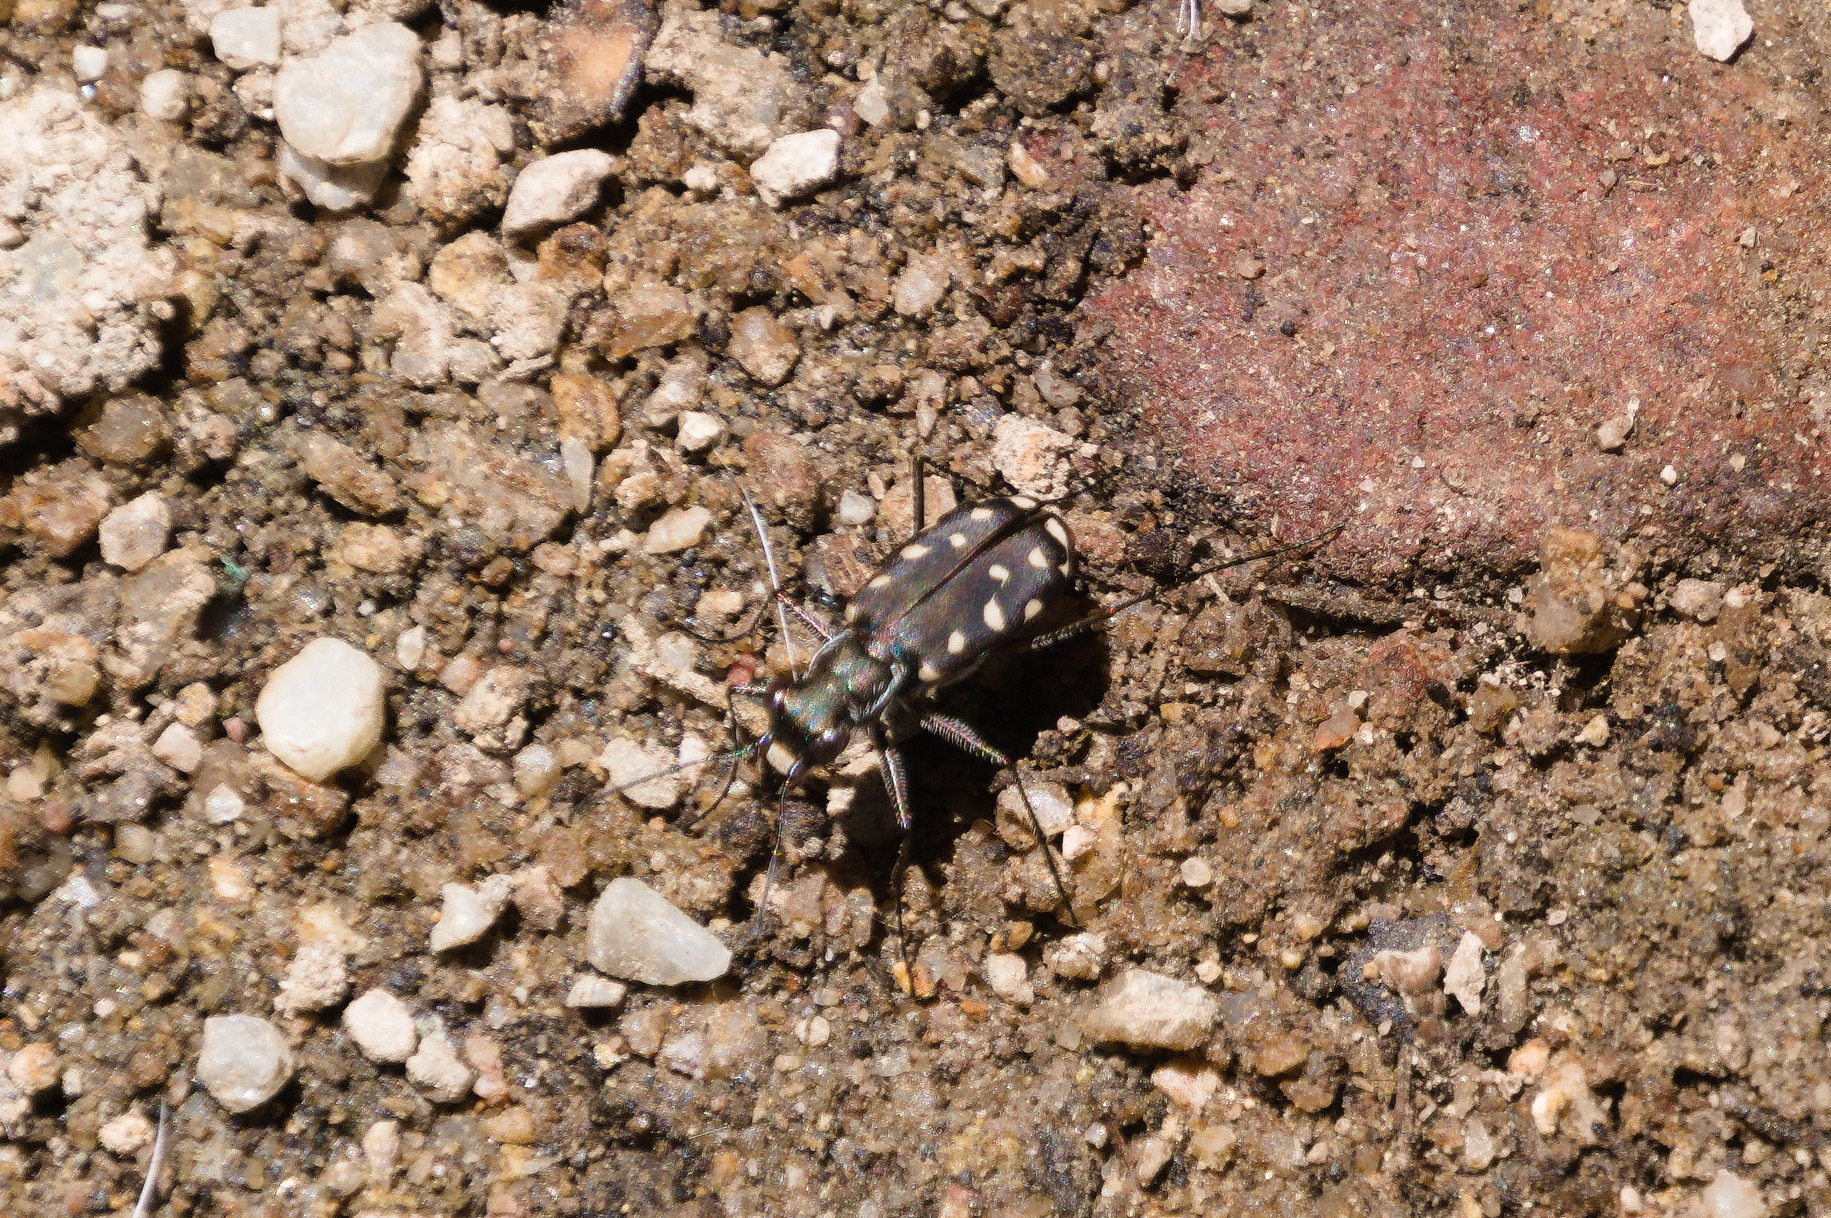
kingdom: Animalia
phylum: Arthropoda
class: Insecta
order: Coleoptera
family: Carabidae
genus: Cicindela
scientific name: Cicindela sedecimpunctata
